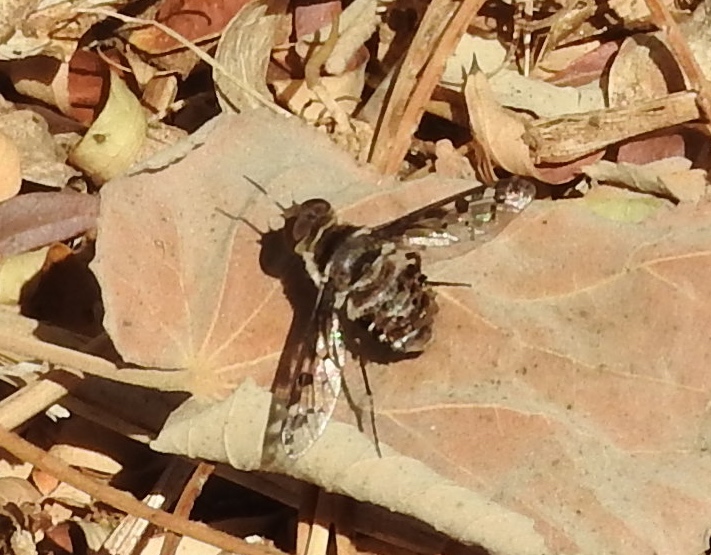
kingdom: Animalia
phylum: Arthropoda
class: Insecta
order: Diptera
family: Bombyliidae
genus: Lepidanthrax
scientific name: Lepidanthrax
